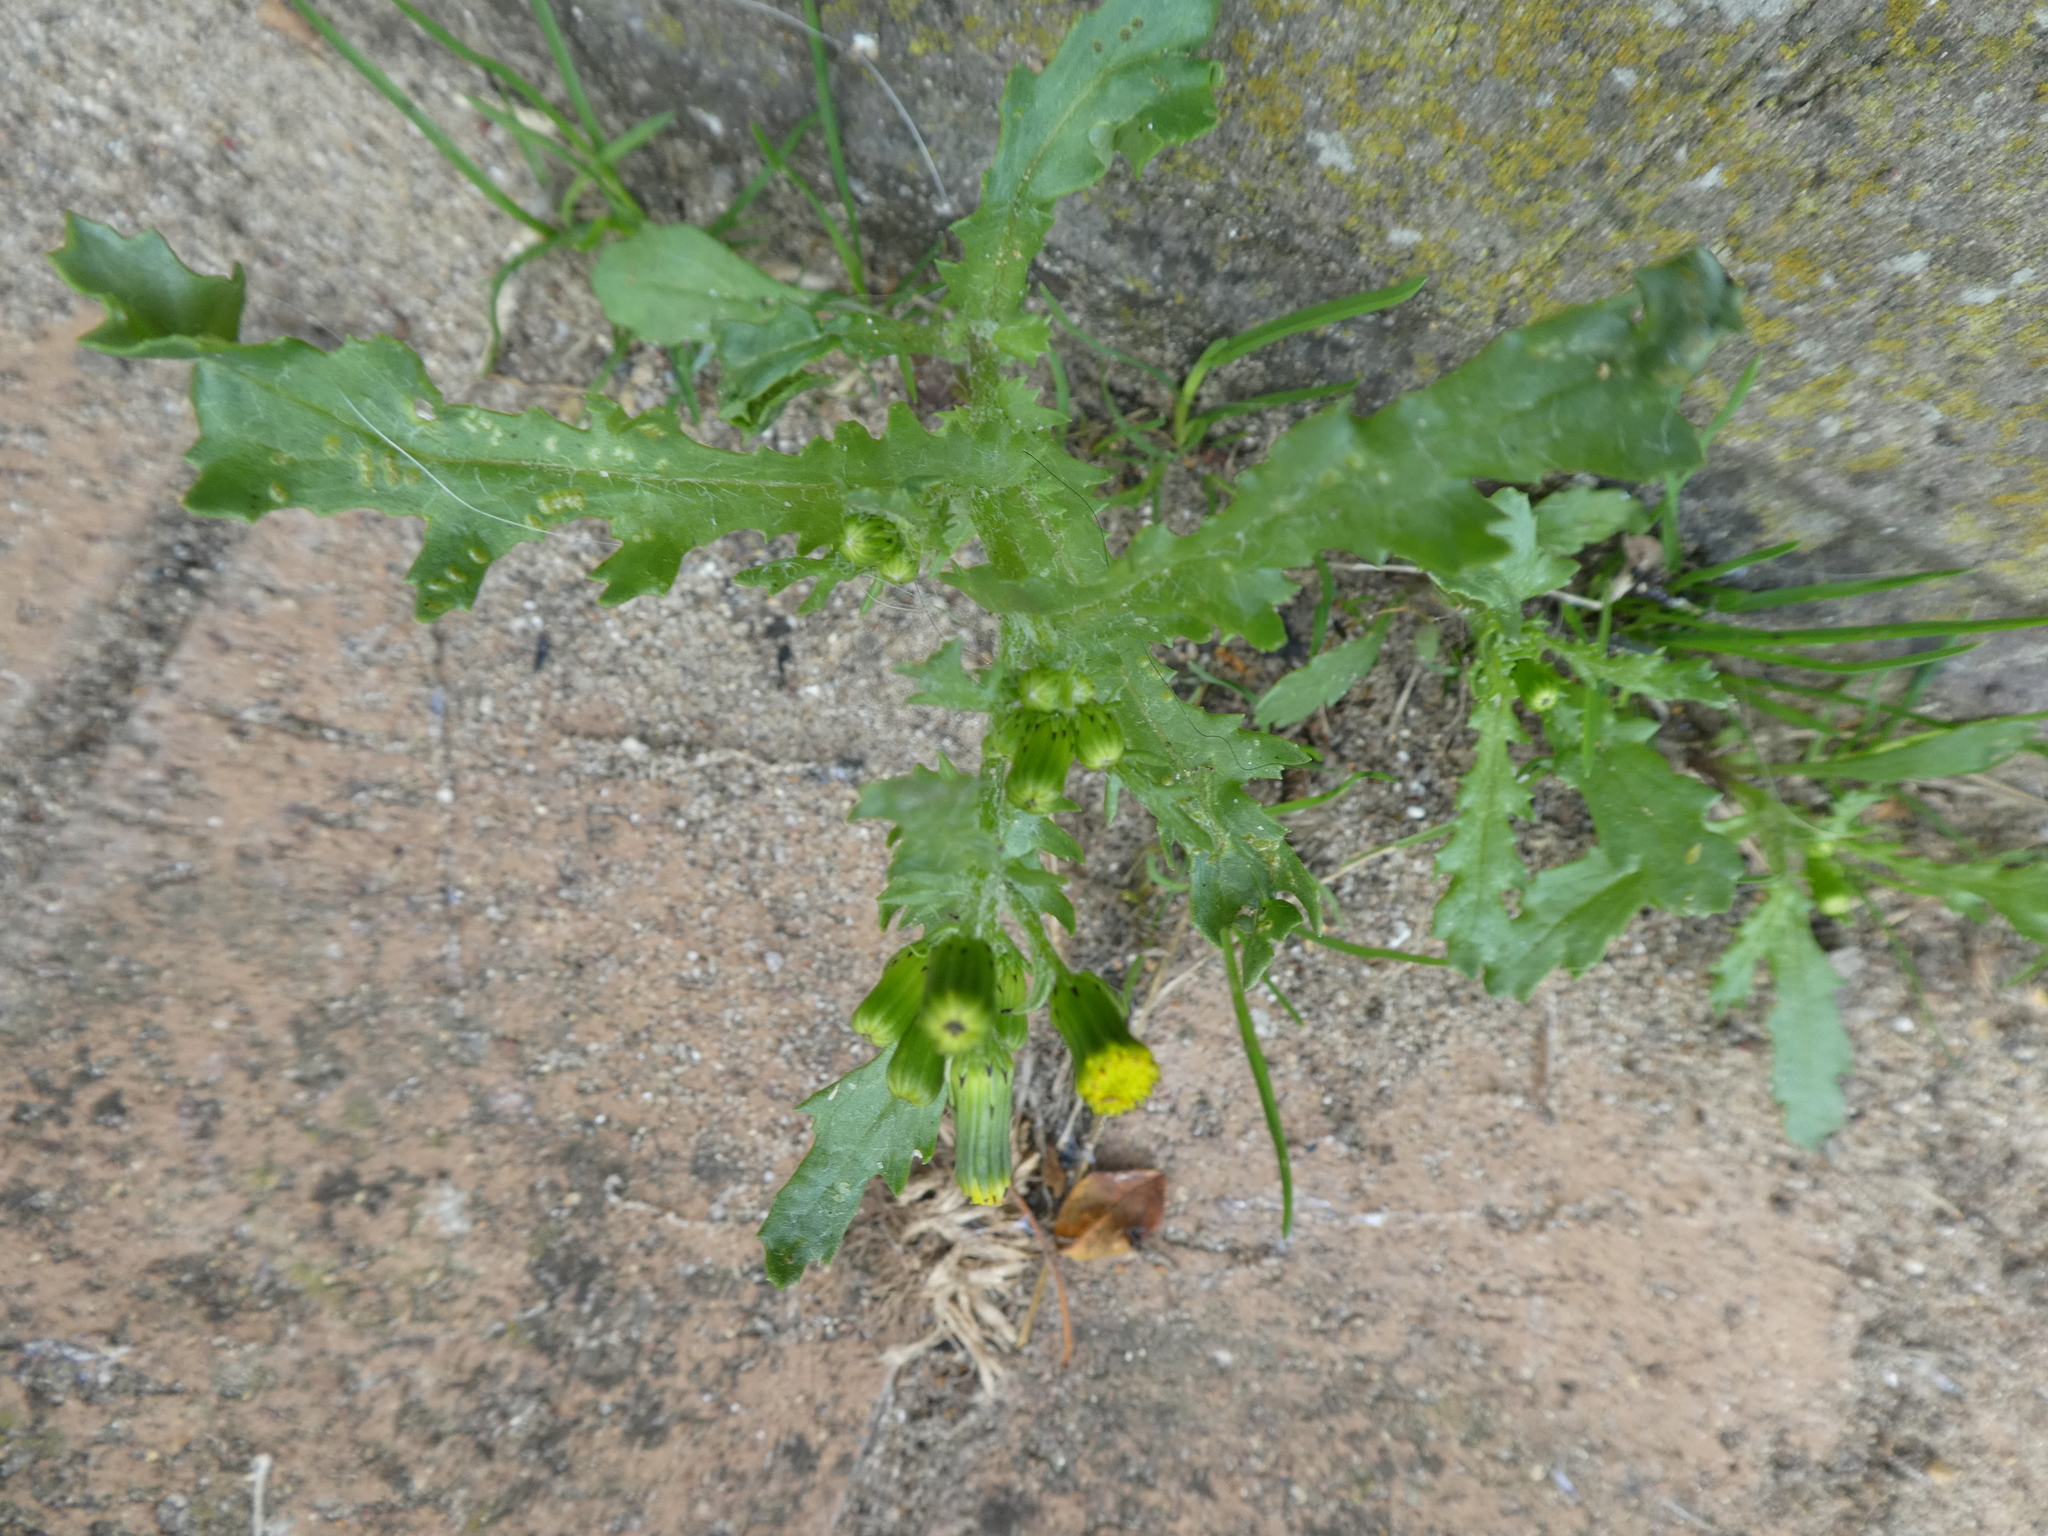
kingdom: Plantae
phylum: Tracheophyta
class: Magnoliopsida
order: Asterales
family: Asteraceae
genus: Senecio
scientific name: Senecio vulgaris
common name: Old-man-in-the-spring
